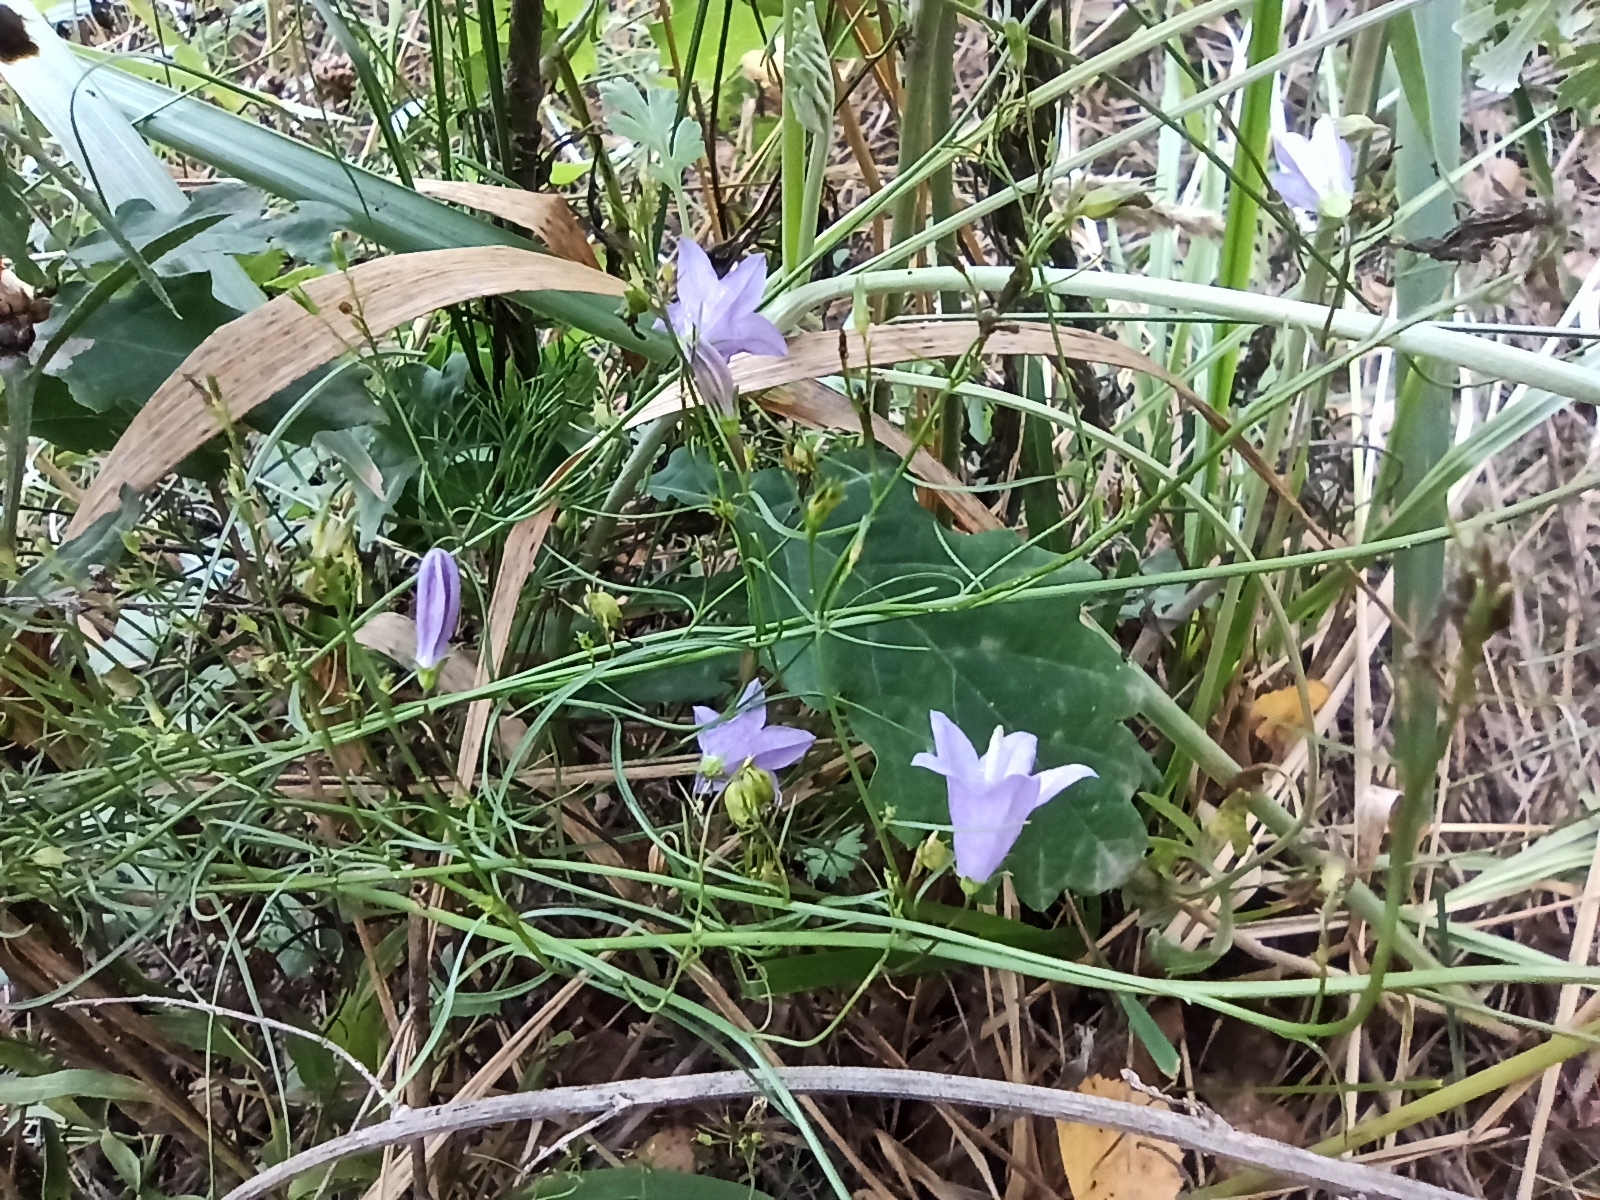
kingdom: Plantae
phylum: Tracheophyta
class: Magnoliopsida
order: Asterales
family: Campanulaceae
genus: Campanula
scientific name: Campanula rotundifolia
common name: Harebell
